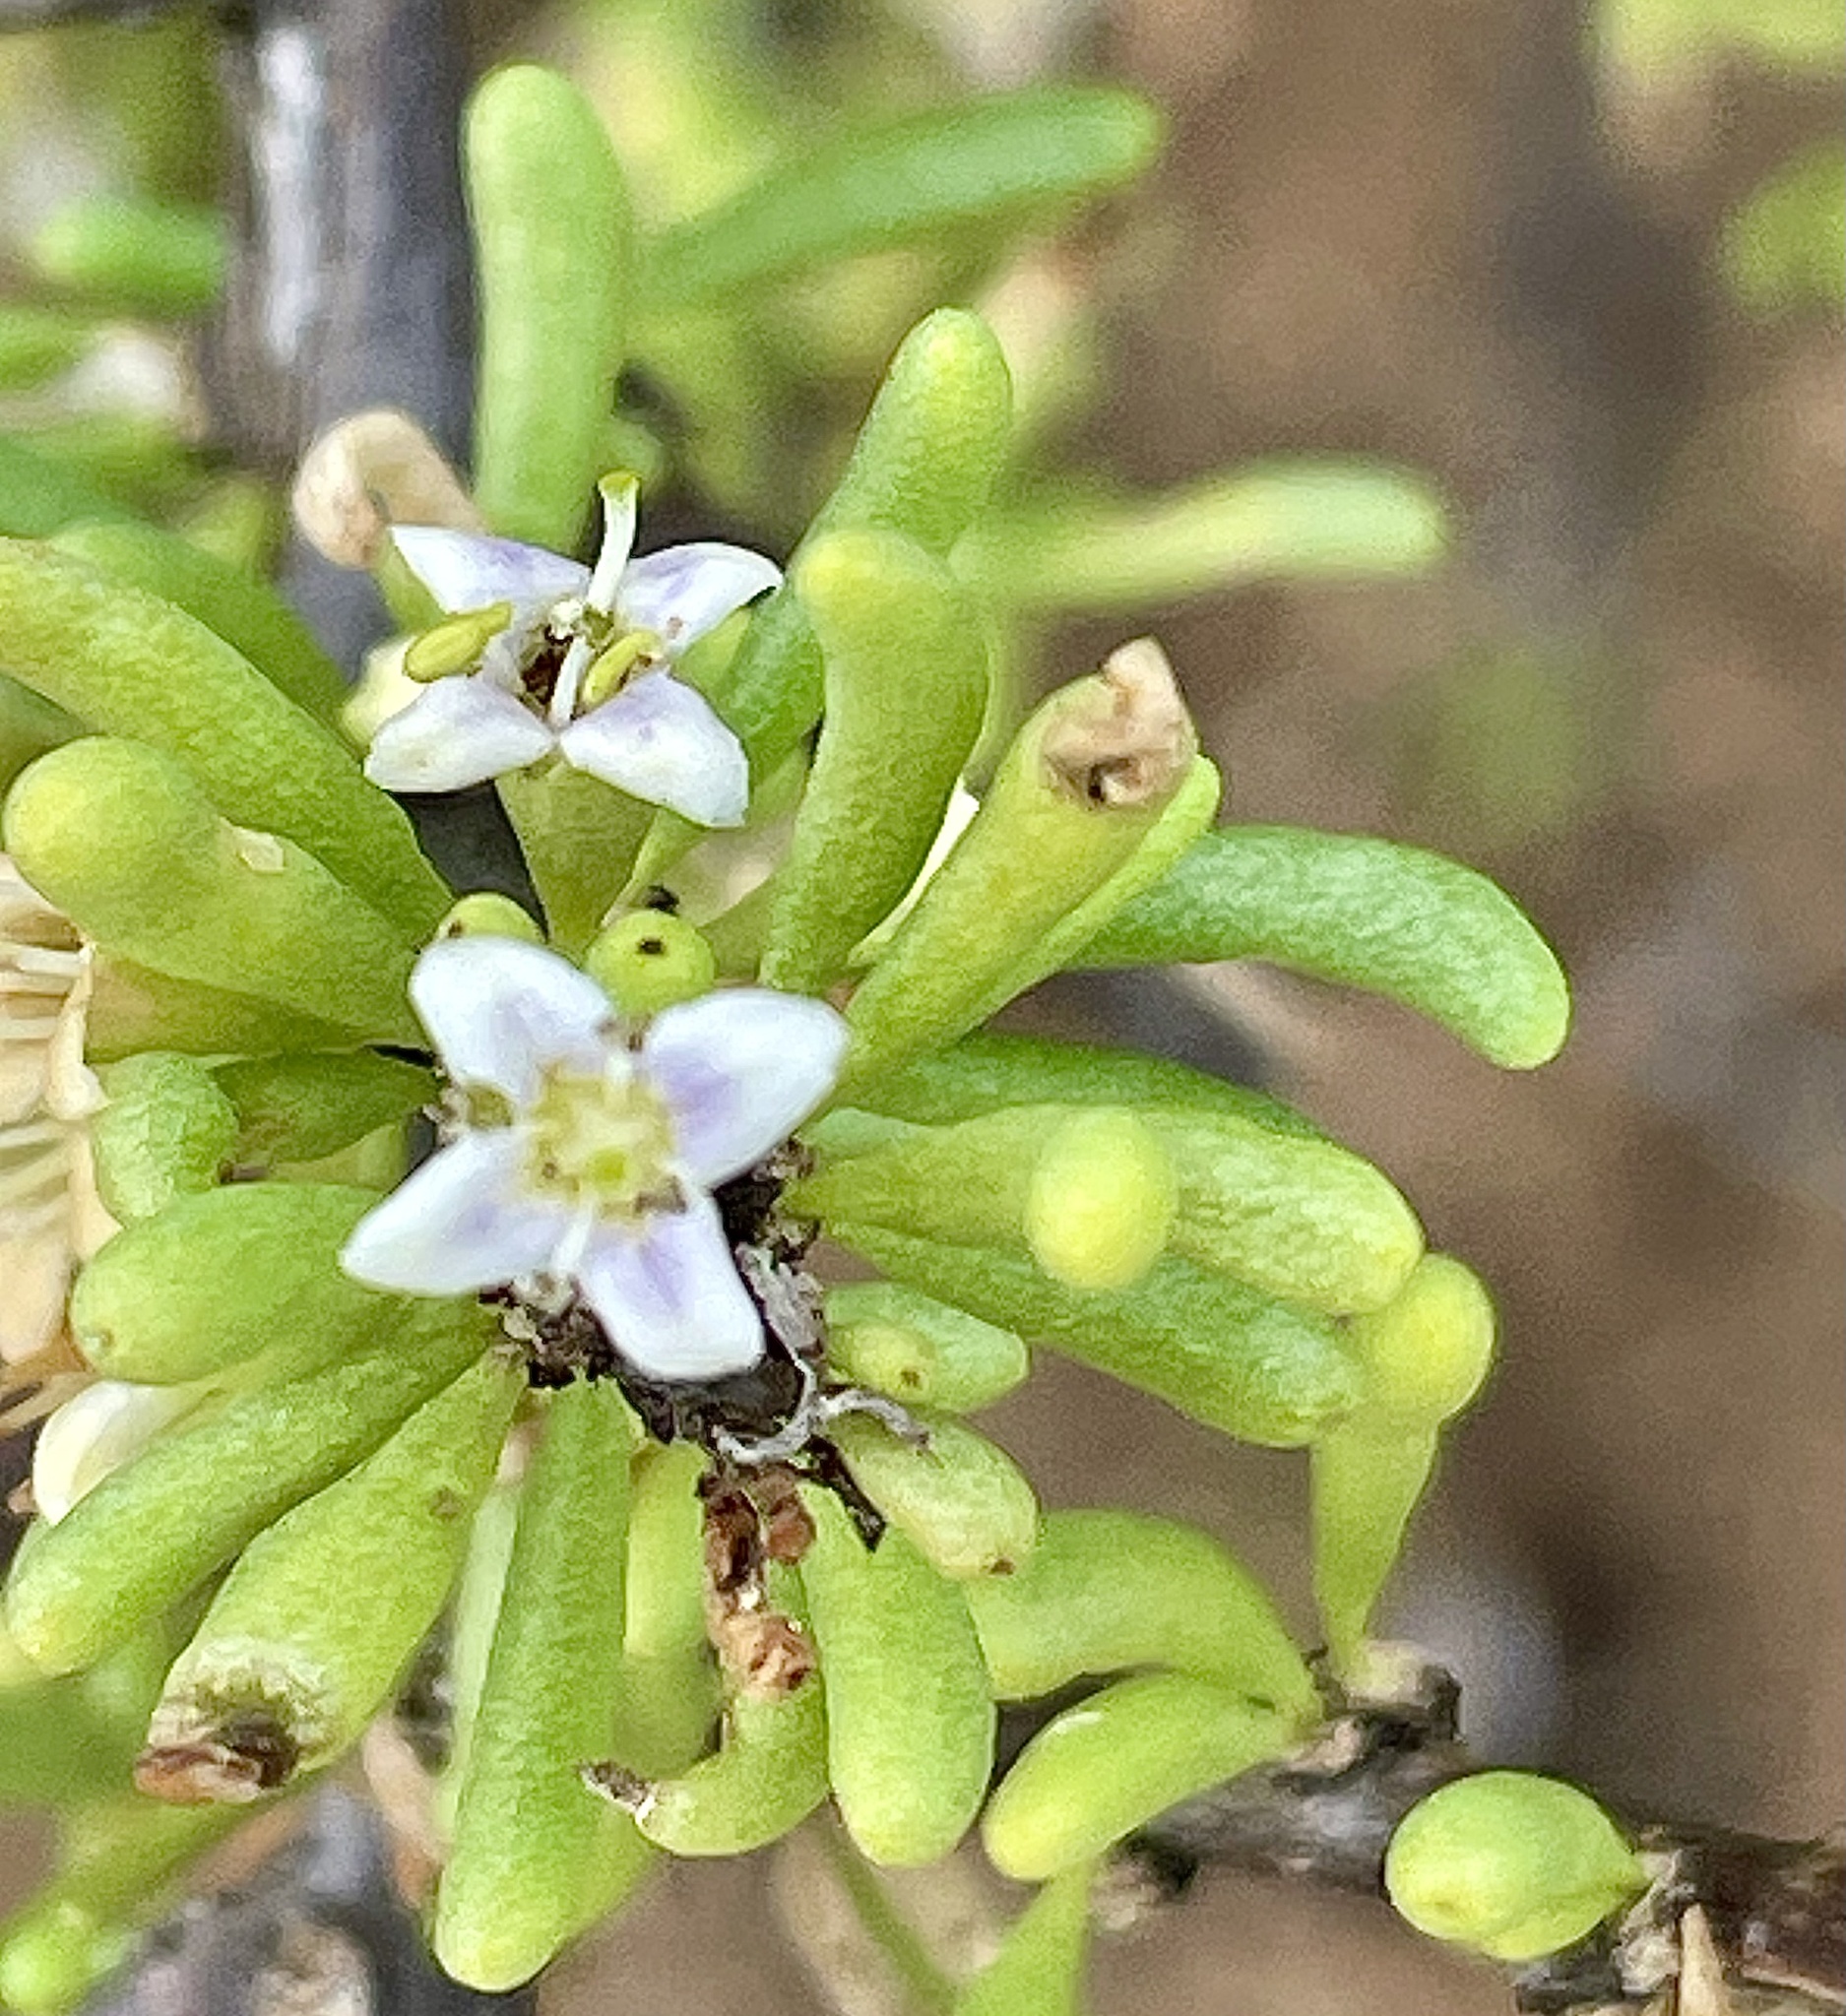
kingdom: Plantae
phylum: Tracheophyta
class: Magnoliopsida
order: Solanales
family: Solanaceae
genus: Lycium
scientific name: Lycium californicum
